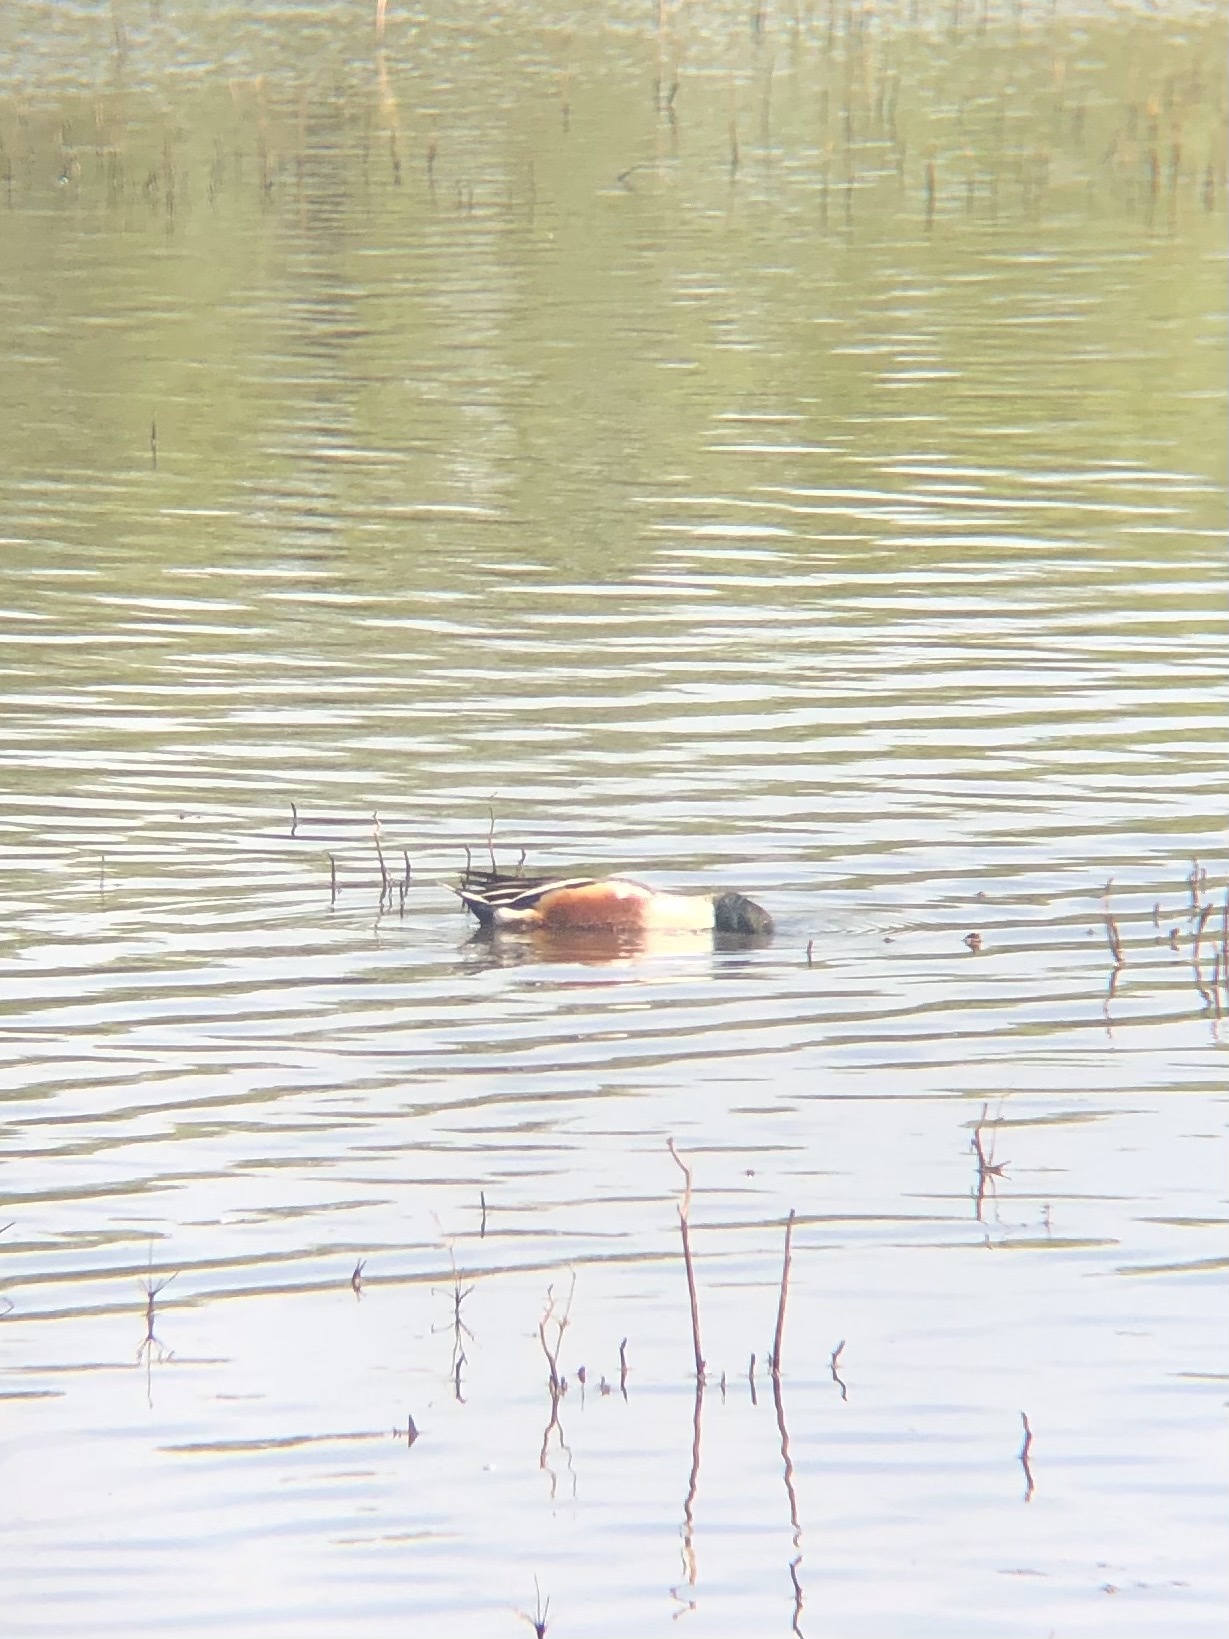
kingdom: Animalia
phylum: Chordata
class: Aves
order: Anseriformes
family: Anatidae
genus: Spatula
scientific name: Spatula clypeata
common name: Northern shoveler
